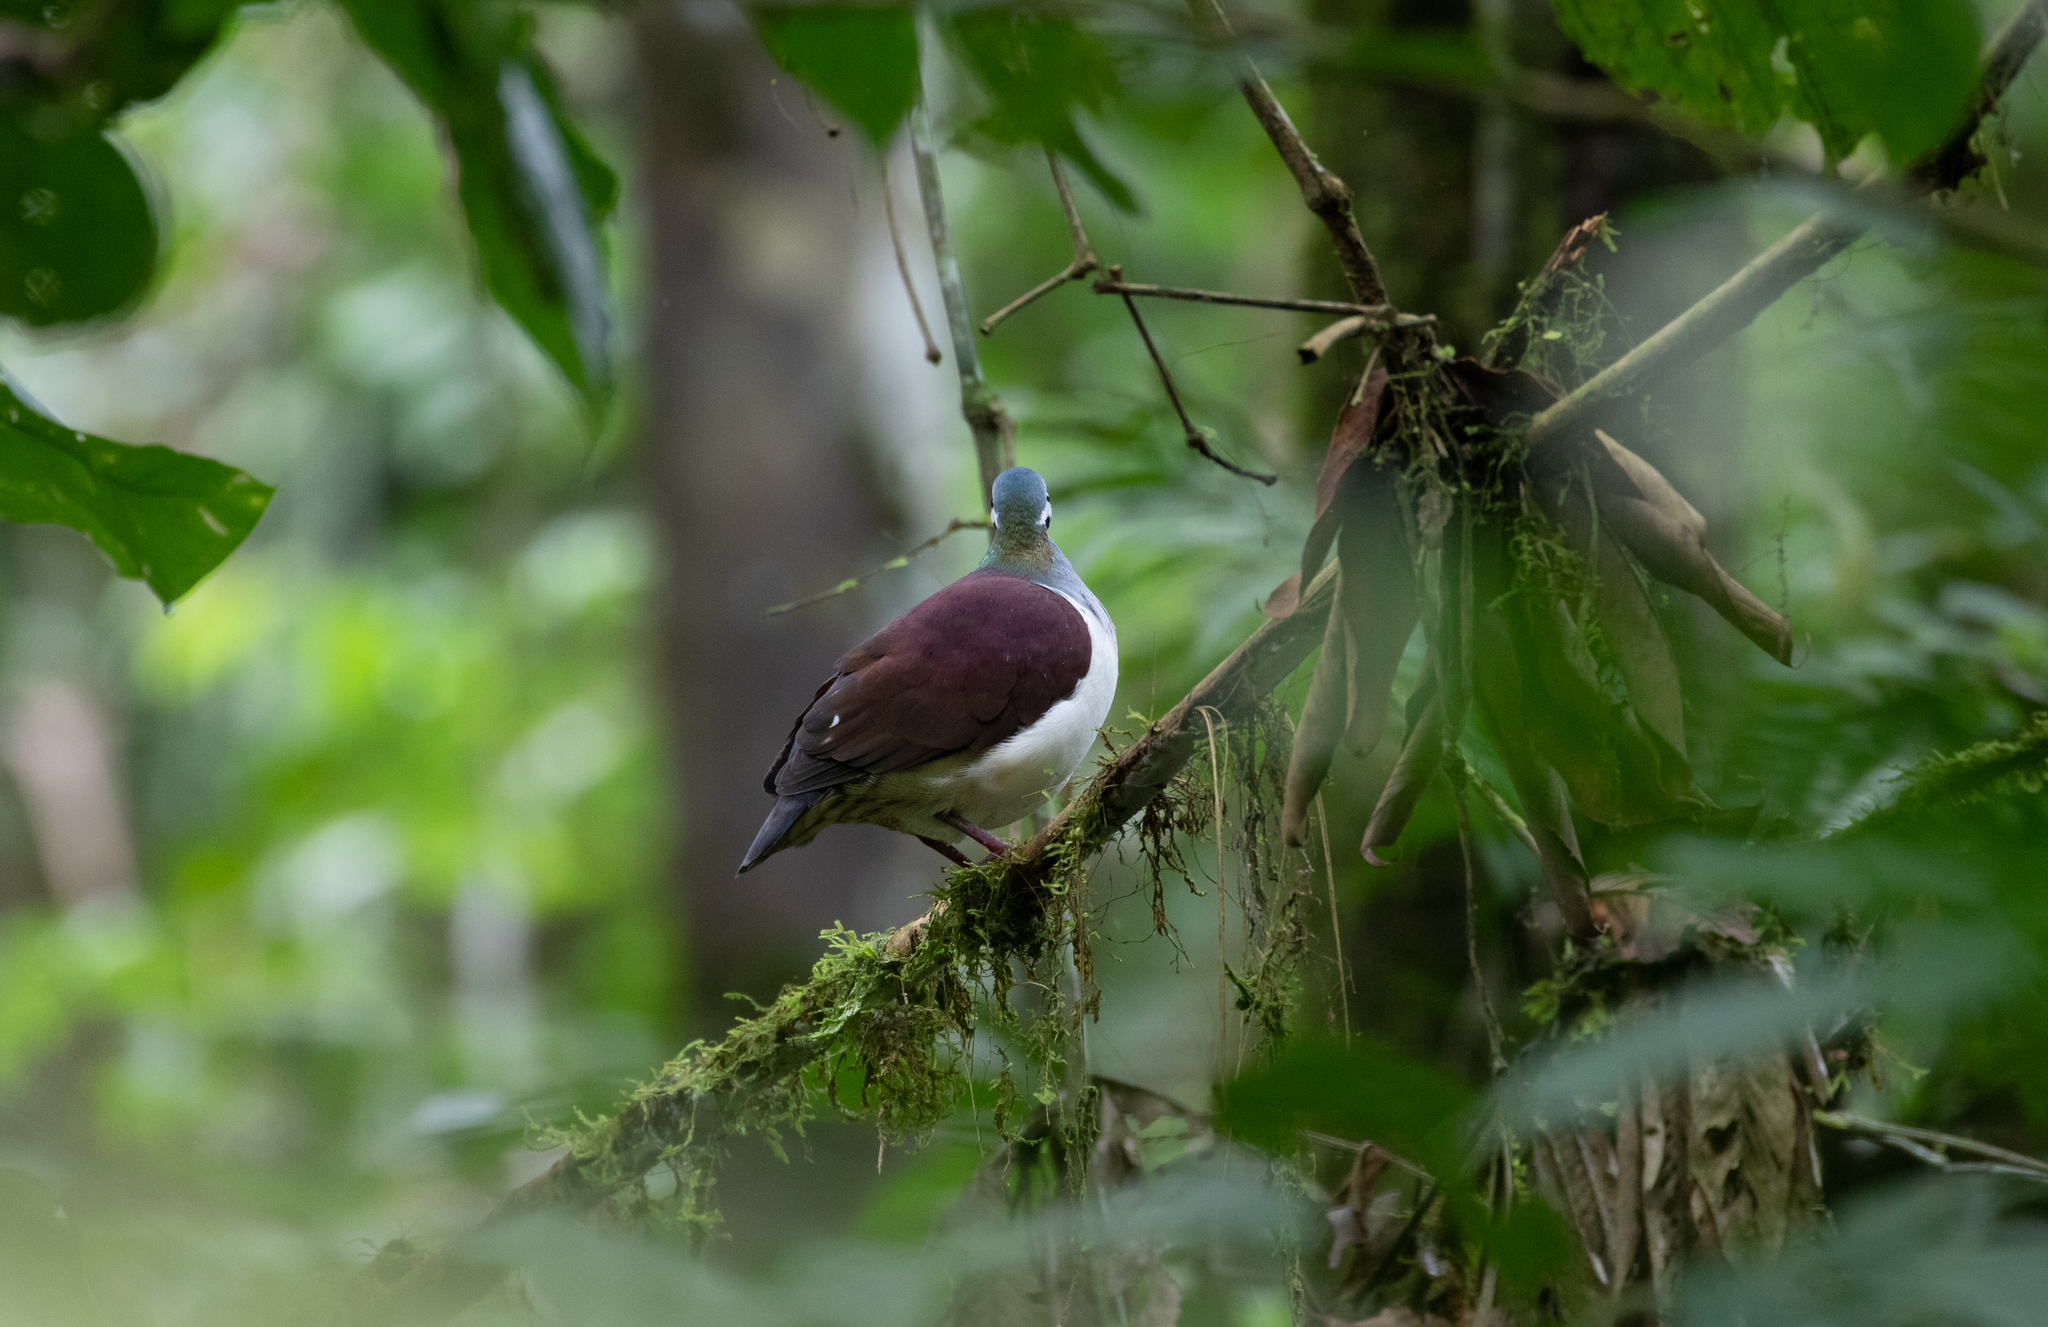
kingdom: Animalia
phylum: Chordata
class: Aves
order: Columbiformes
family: Columbidae
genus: Geotrygon
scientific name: Geotrygon saphirina
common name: Sapphire quail-dove
